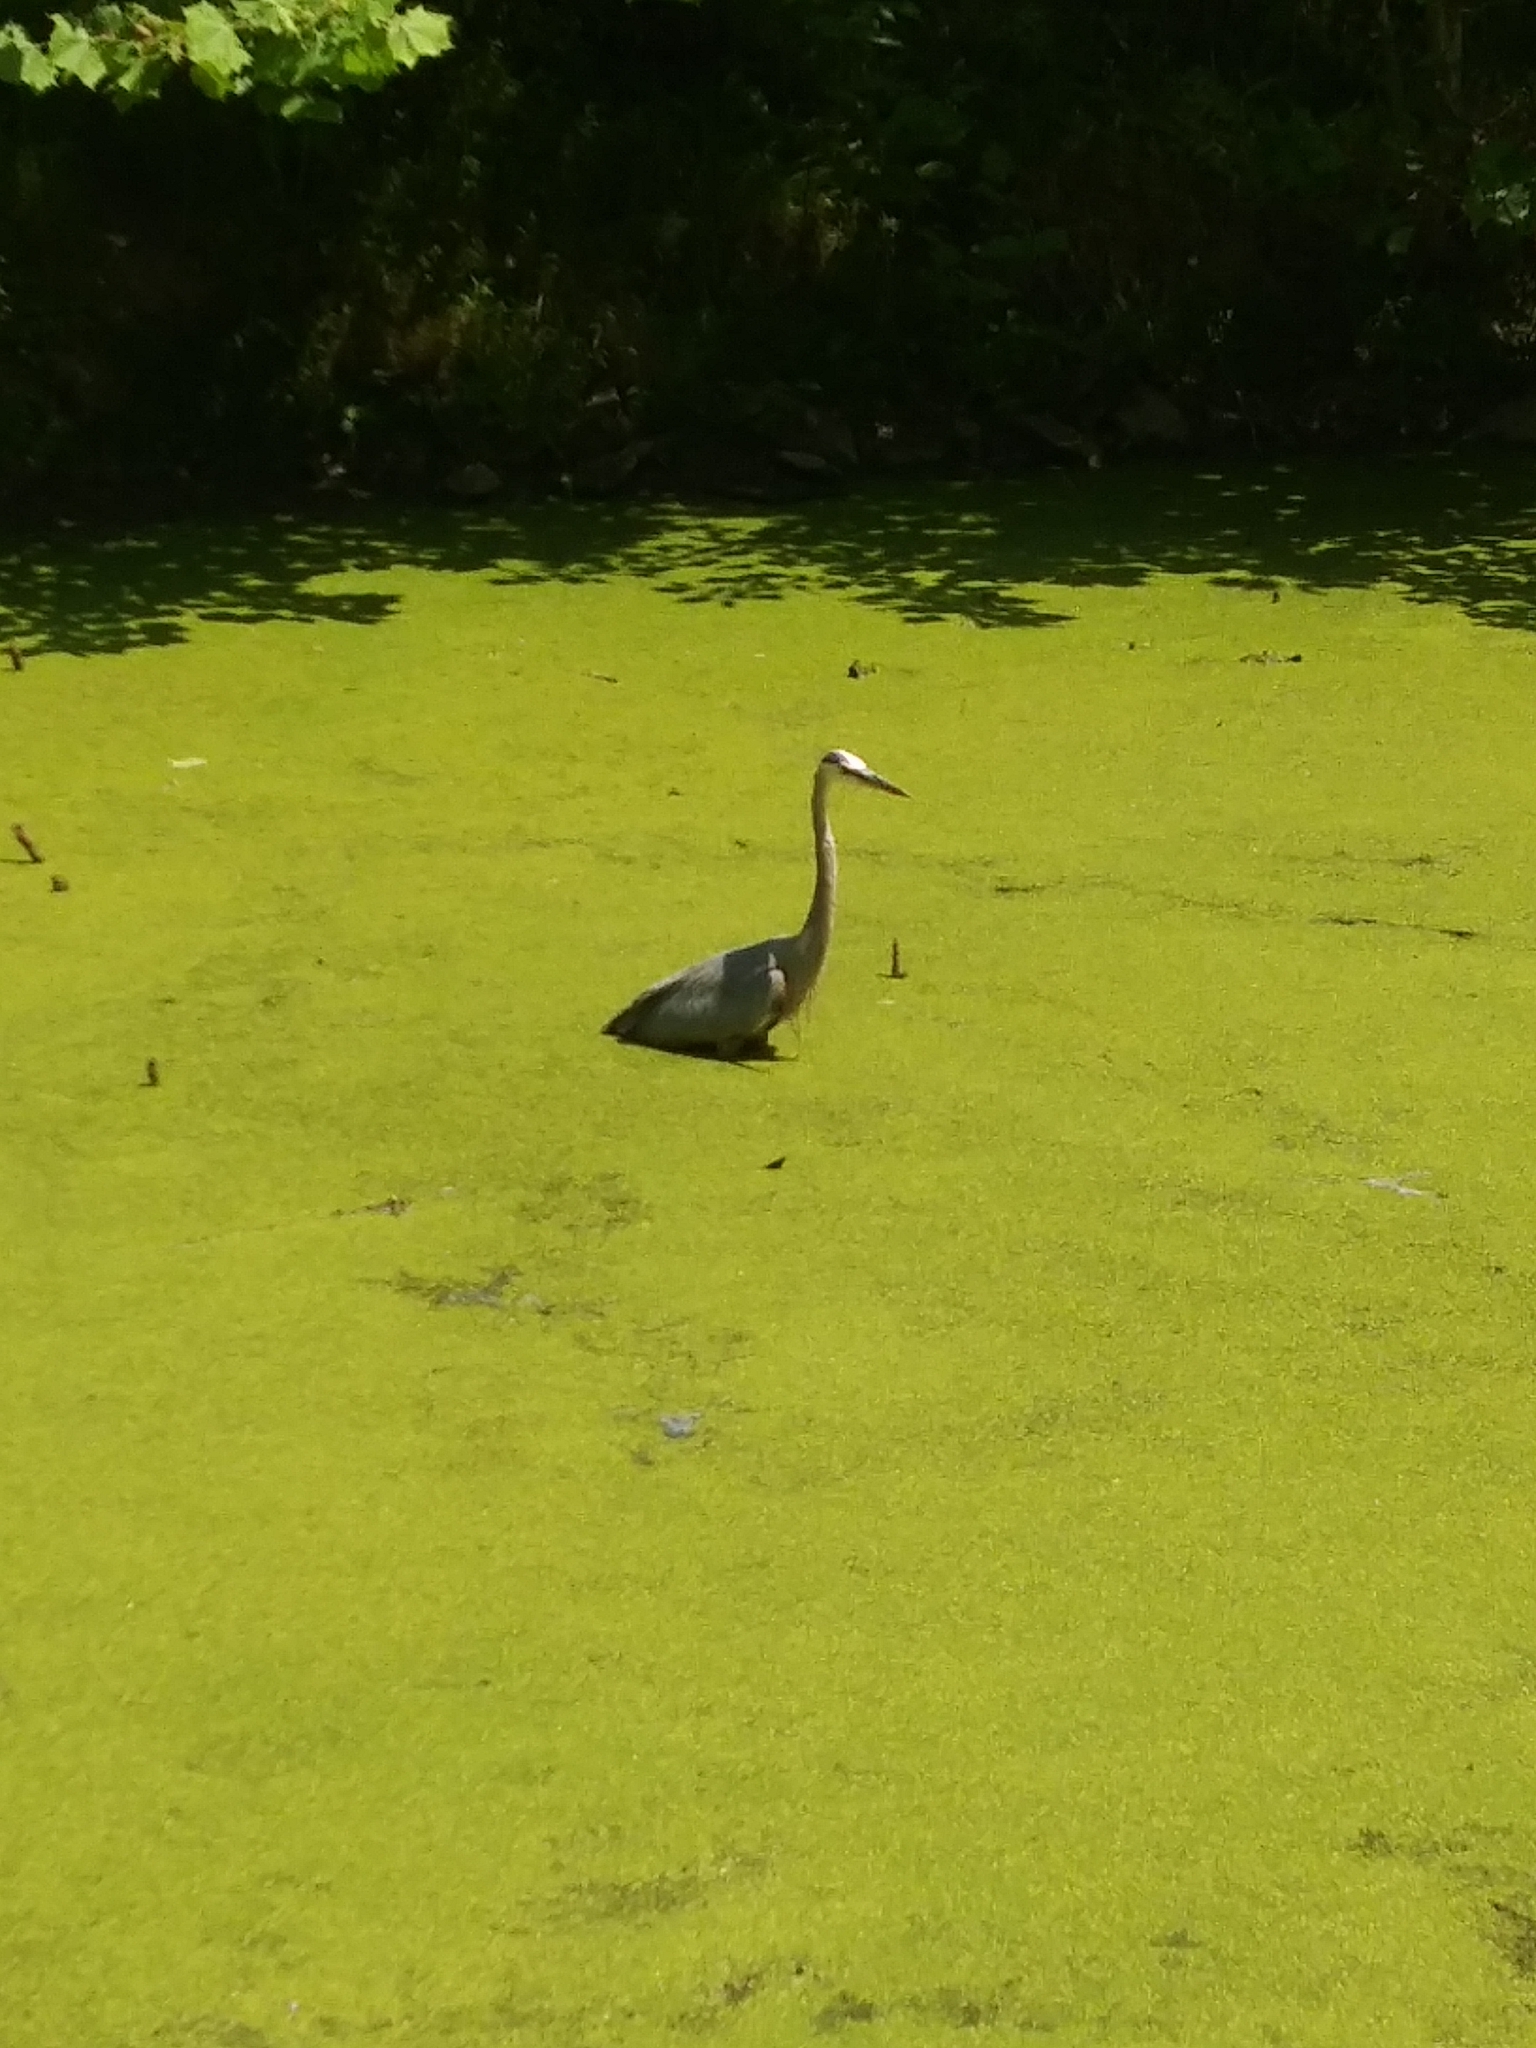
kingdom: Animalia
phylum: Chordata
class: Aves
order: Pelecaniformes
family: Ardeidae
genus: Ardea
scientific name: Ardea herodias
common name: Great blue heron
